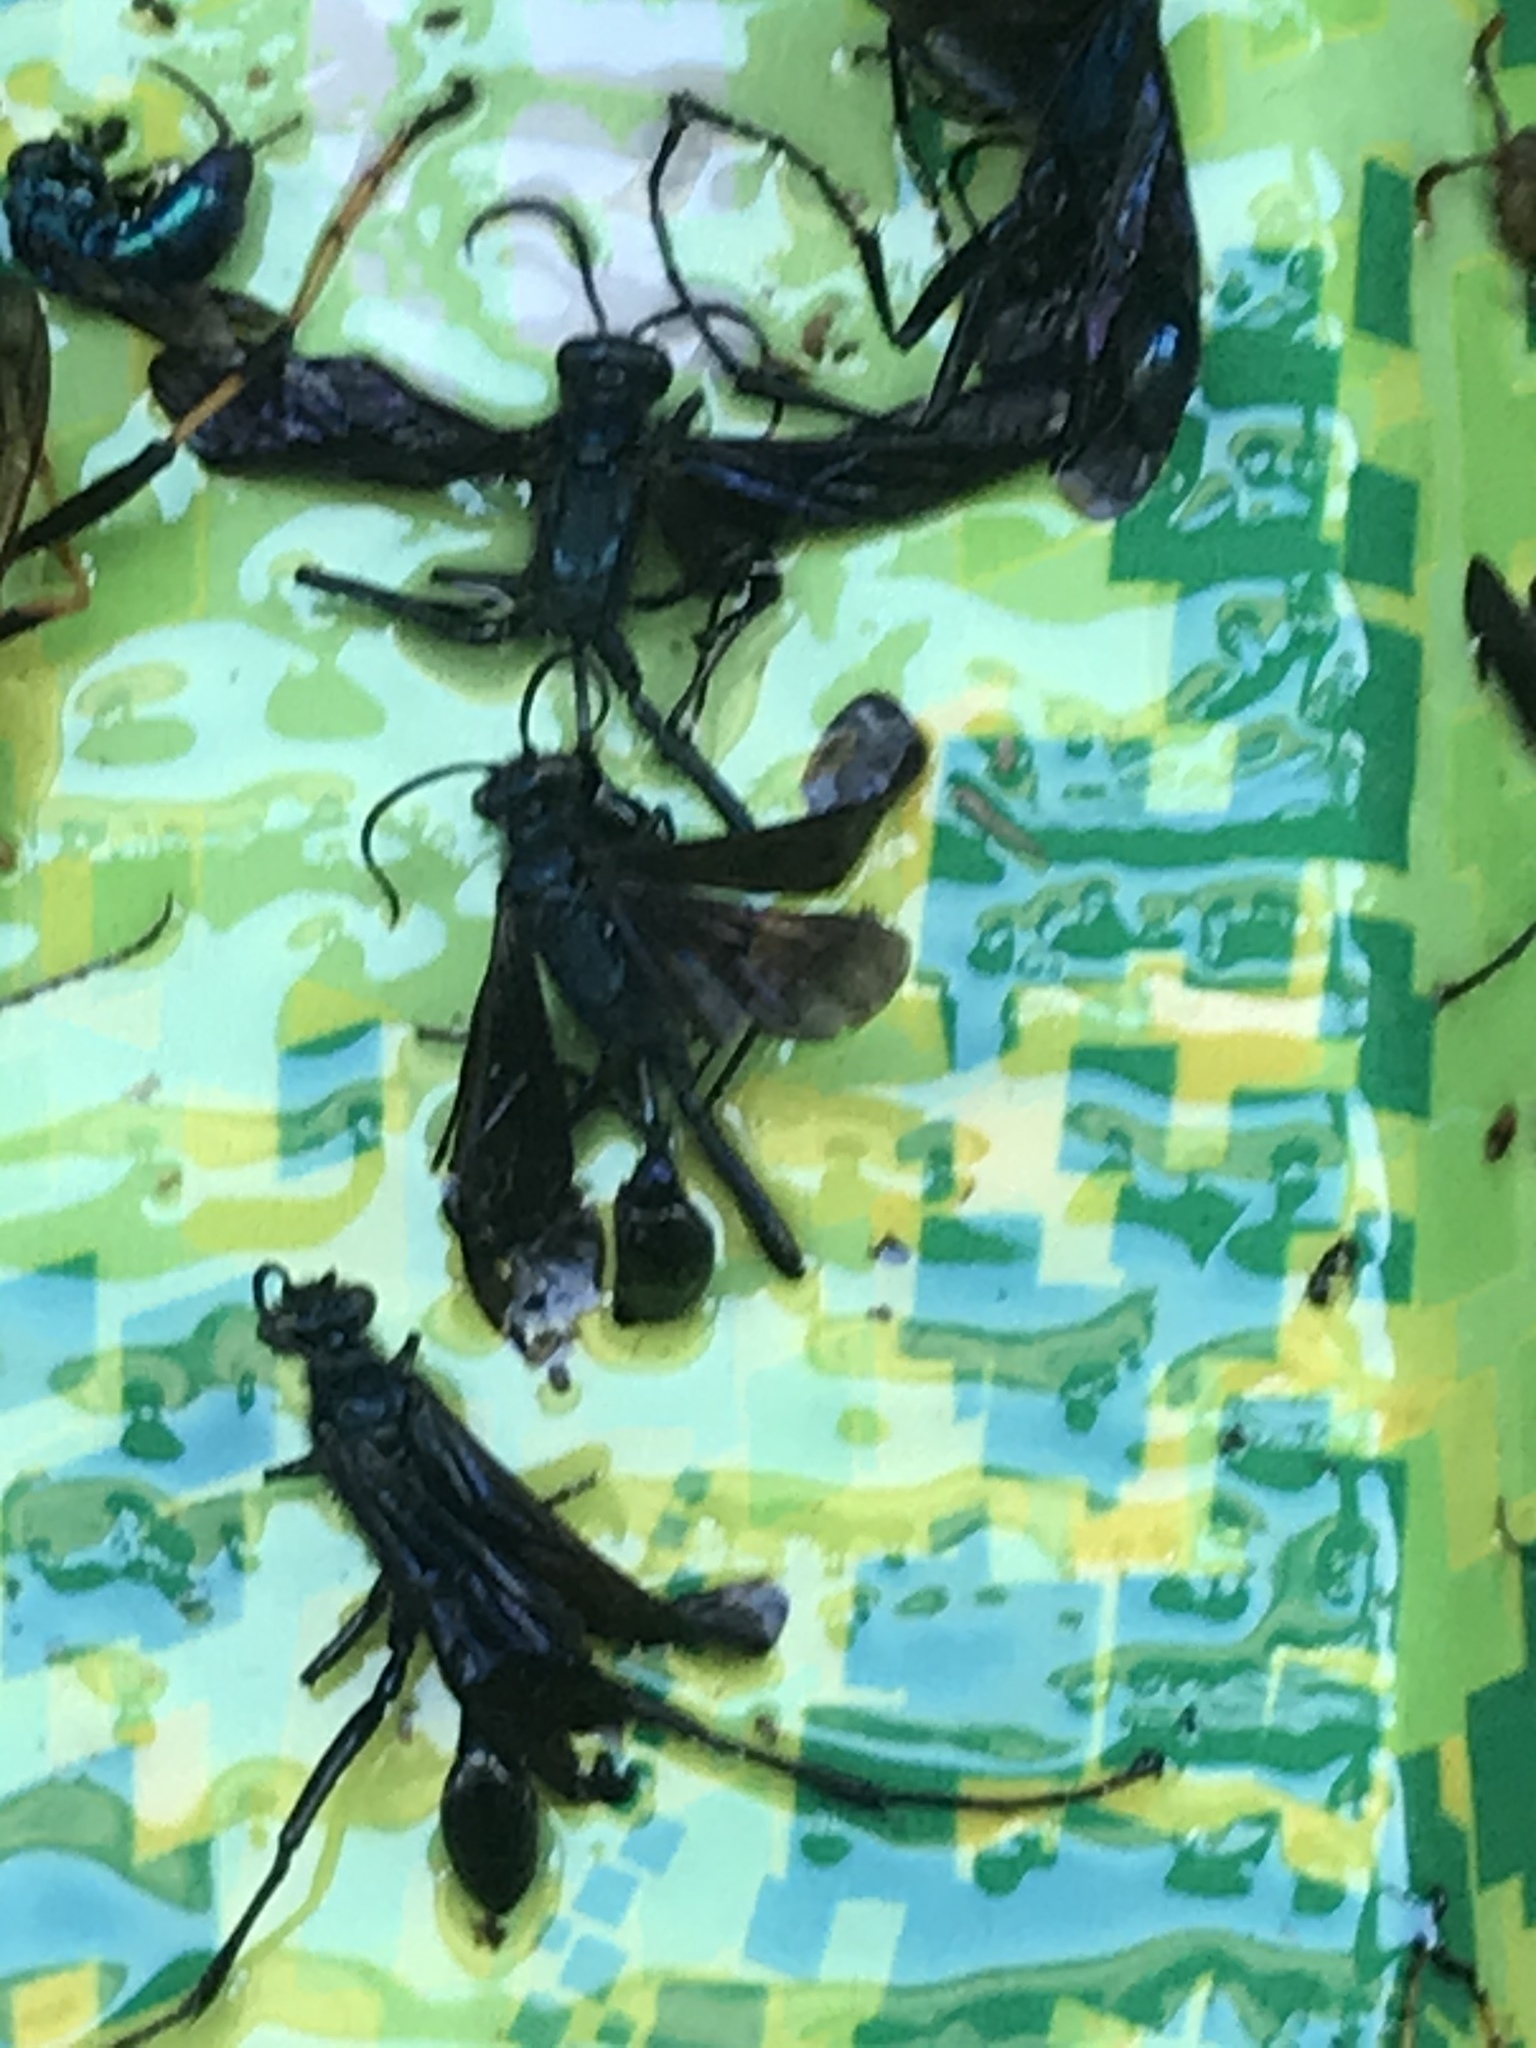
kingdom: Animalia
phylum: Arthropoda
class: Insecta
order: Hymenoptera
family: Sphecidae
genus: Chalybion
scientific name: Chalybion californicum
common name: Mud dauber
